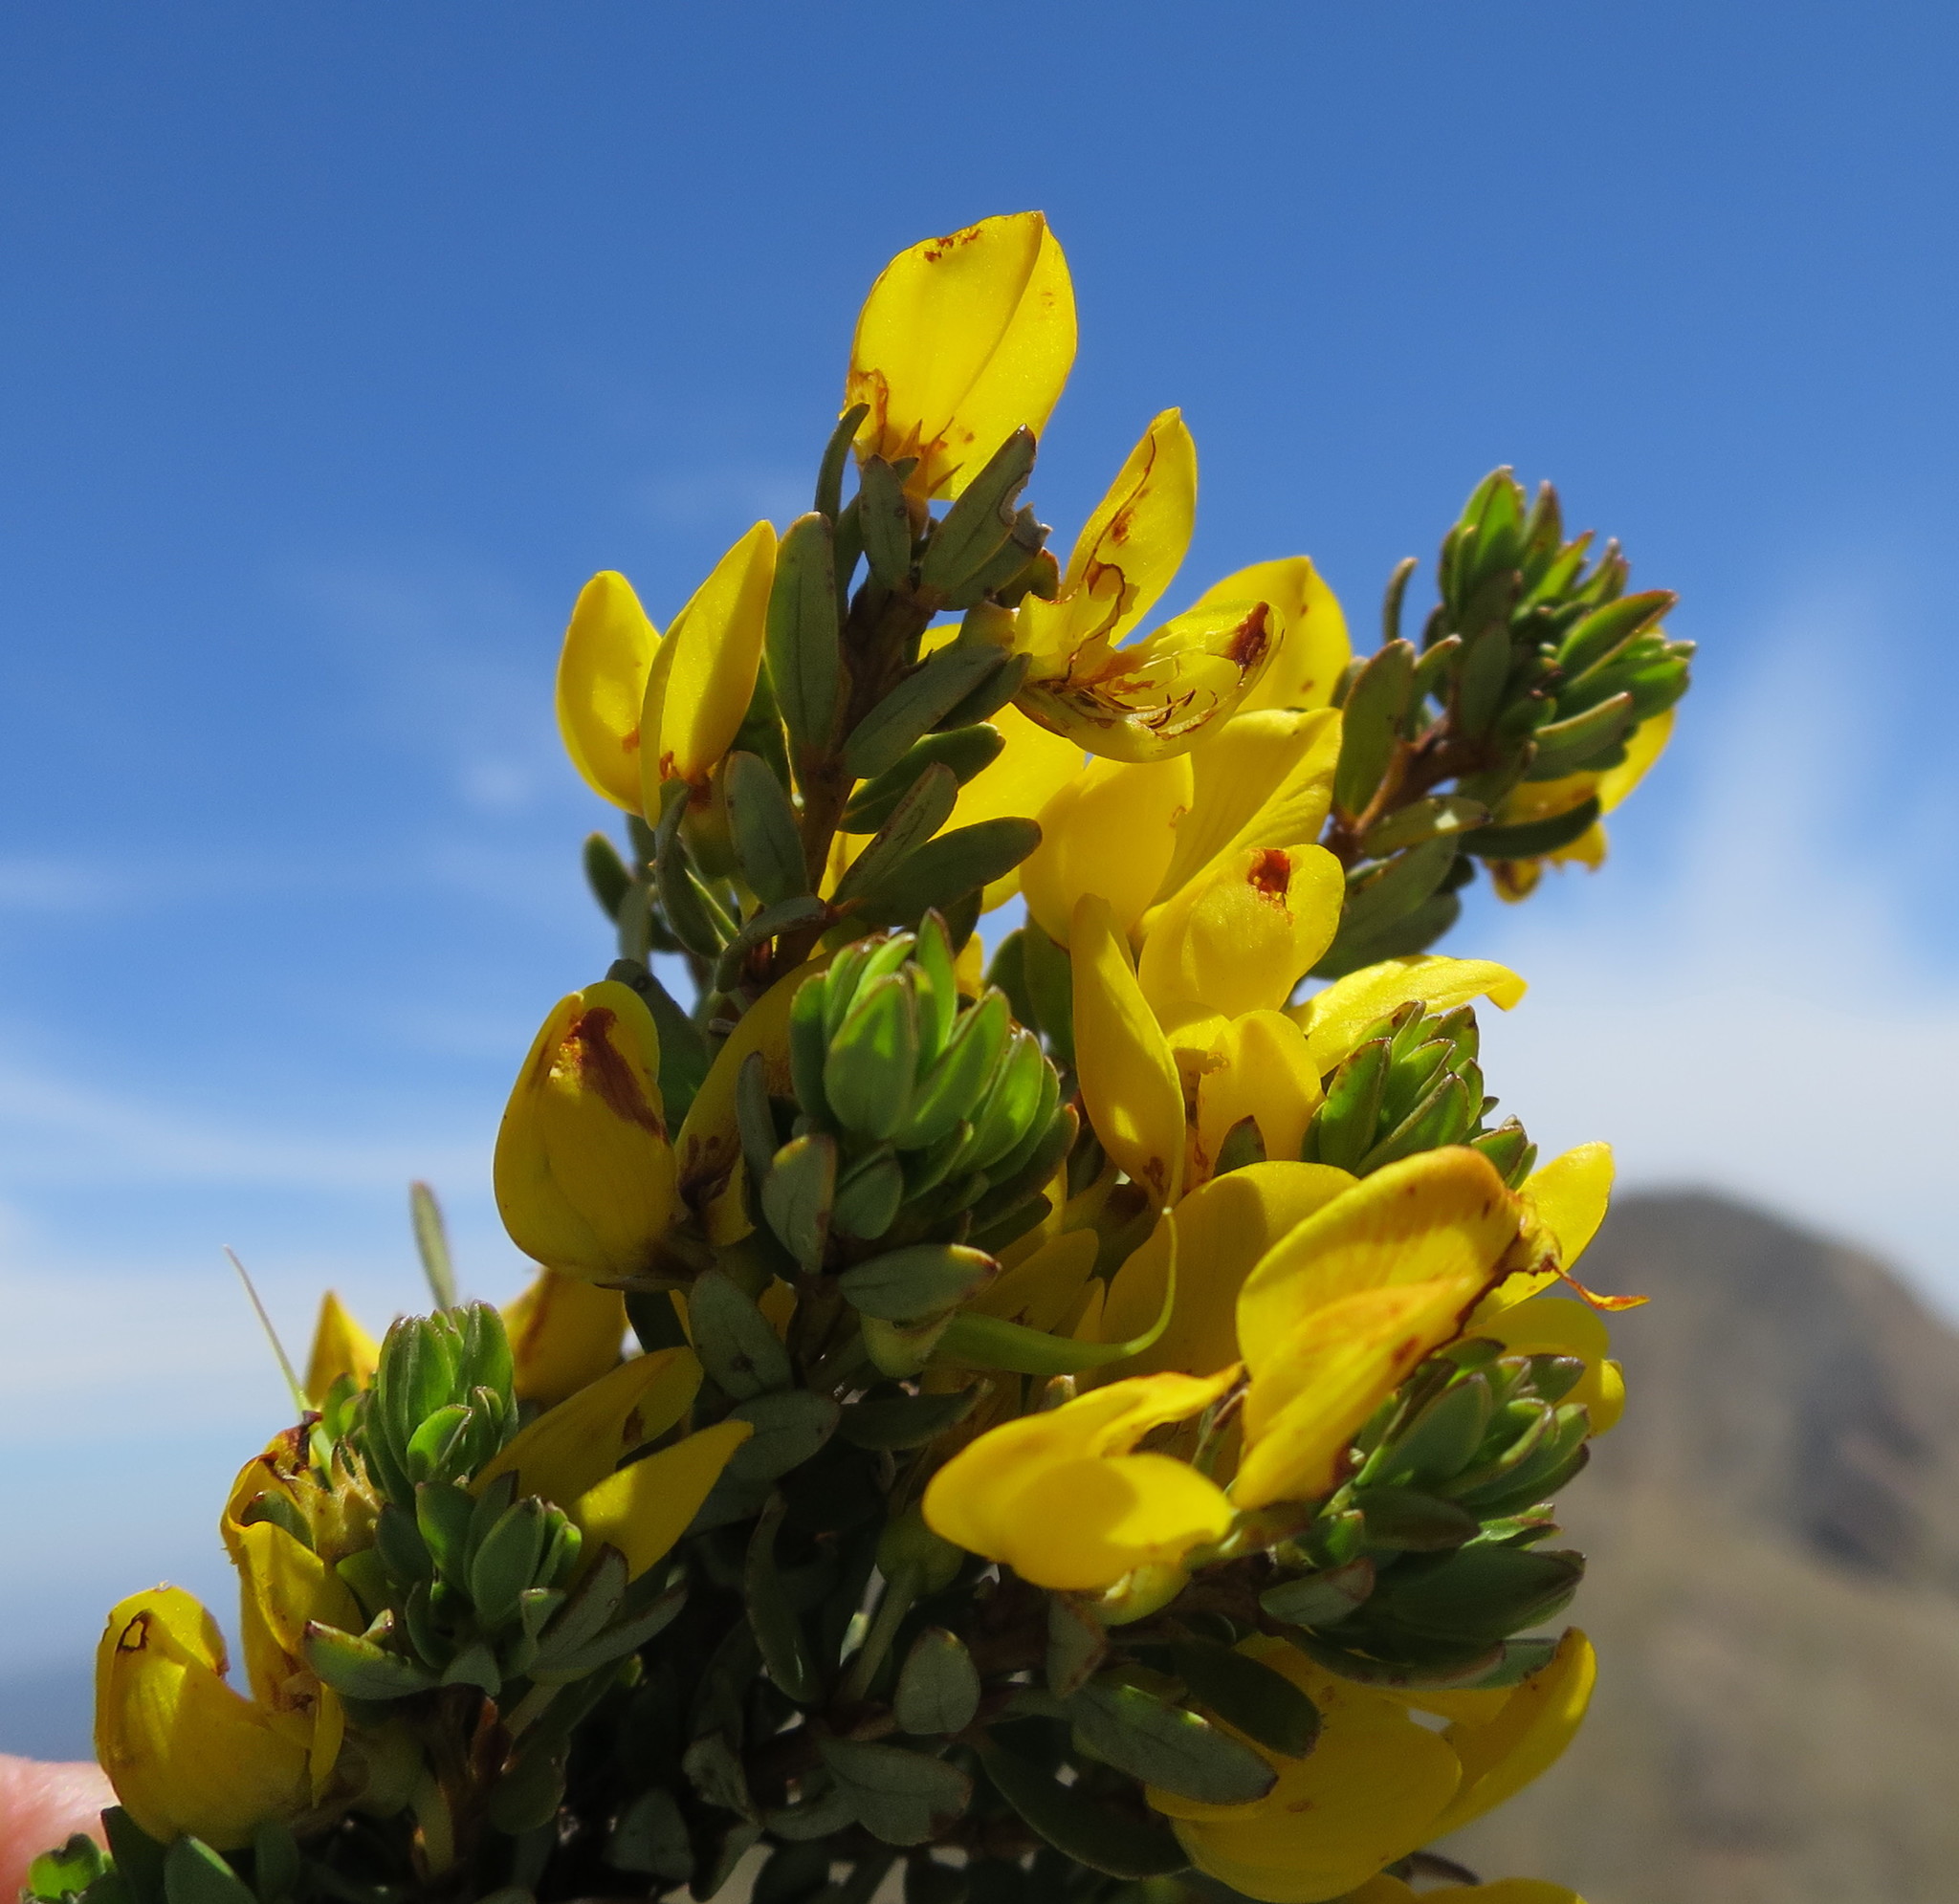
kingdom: Plantae
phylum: Tracheophyta
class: Magnoliopsida
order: Fabales
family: Fabaceae
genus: Cyclopia
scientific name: Cyclopia burtonii
